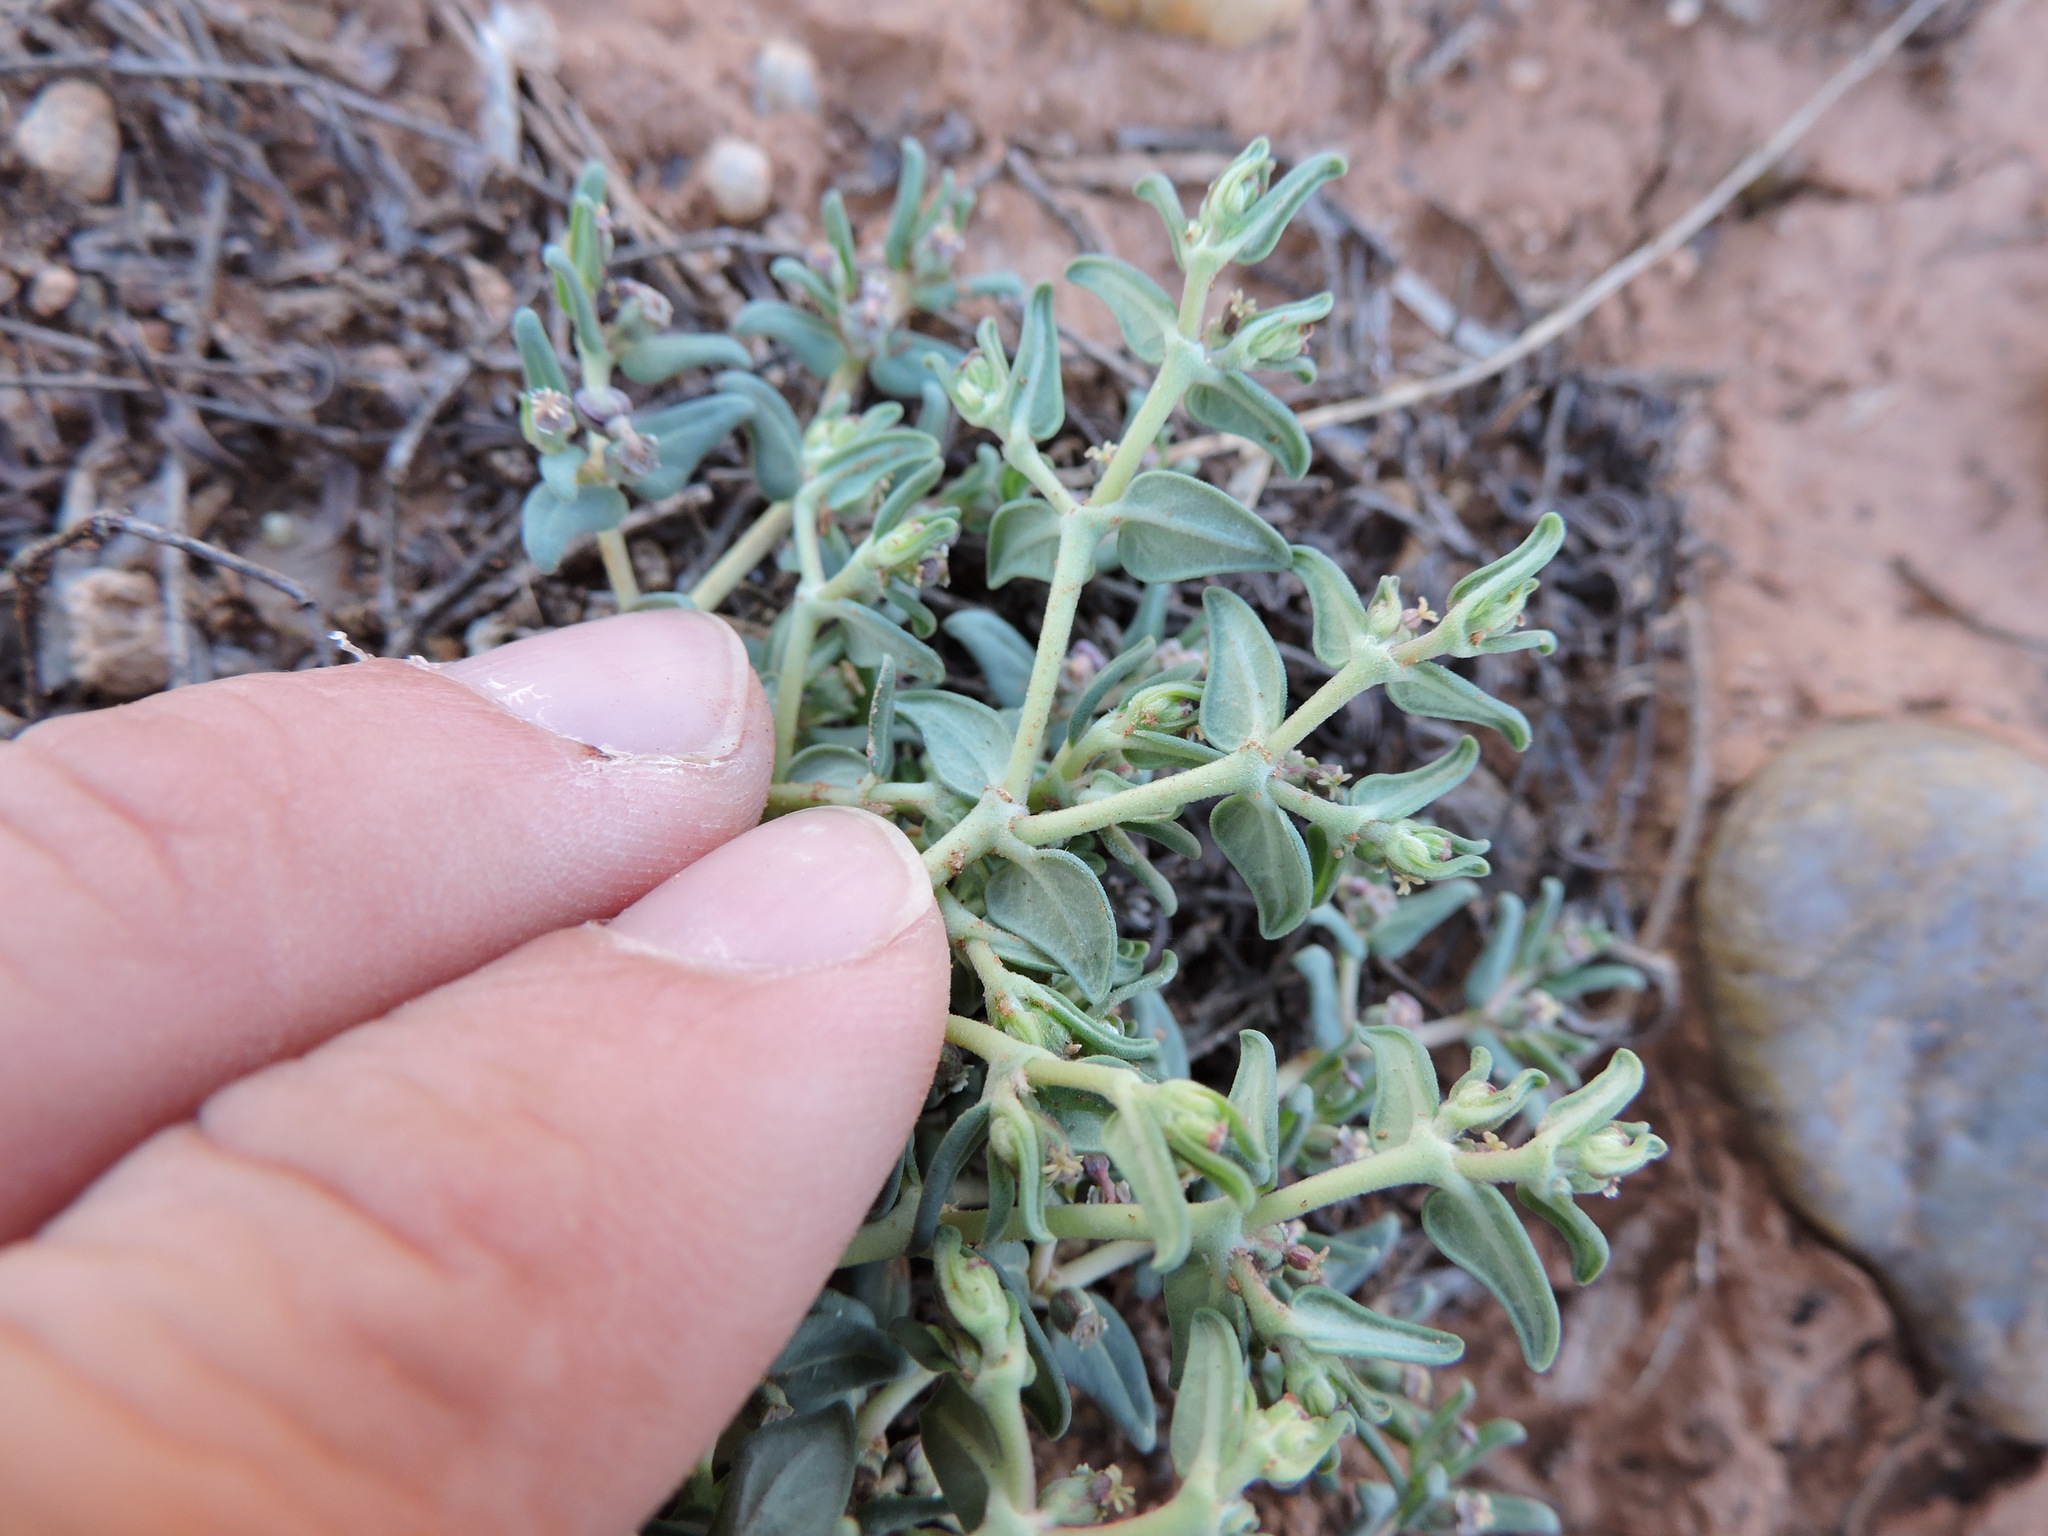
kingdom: Plantae
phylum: Tracheophyta
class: Magnoliopsida
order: Malpighiales
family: Euphorbiaceae
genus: Euphorbia
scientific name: Euphorbia lata
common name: Hoary euphorbia
